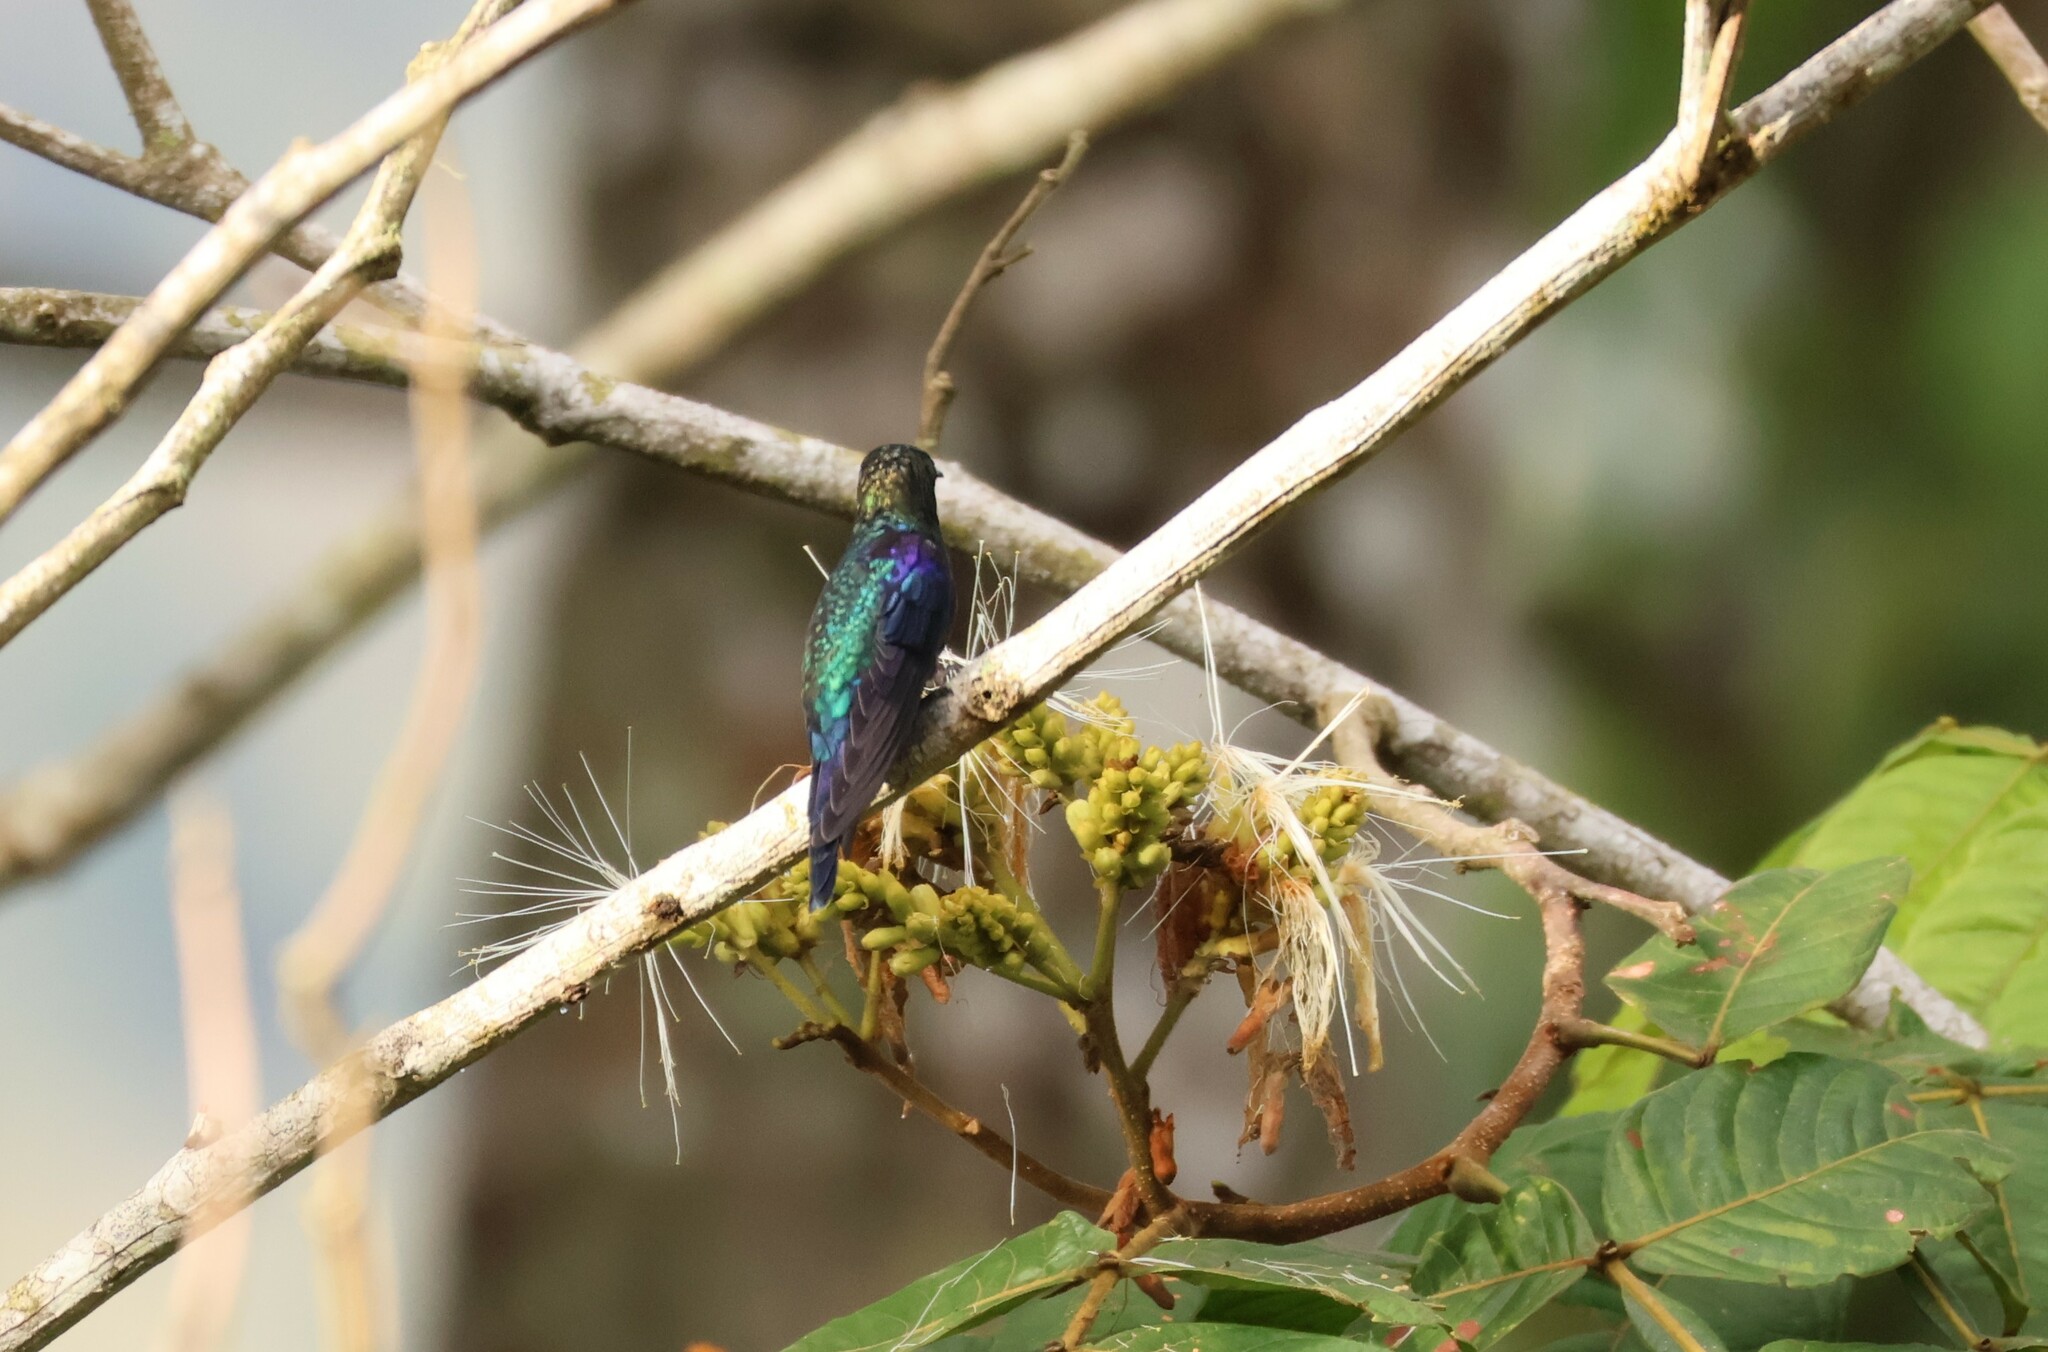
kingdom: Animalia
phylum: Chordata
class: Aves
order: Apodiformes
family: Trochilidae
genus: Thalurania
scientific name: Thalurania colombica
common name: Crowned woodnymph
